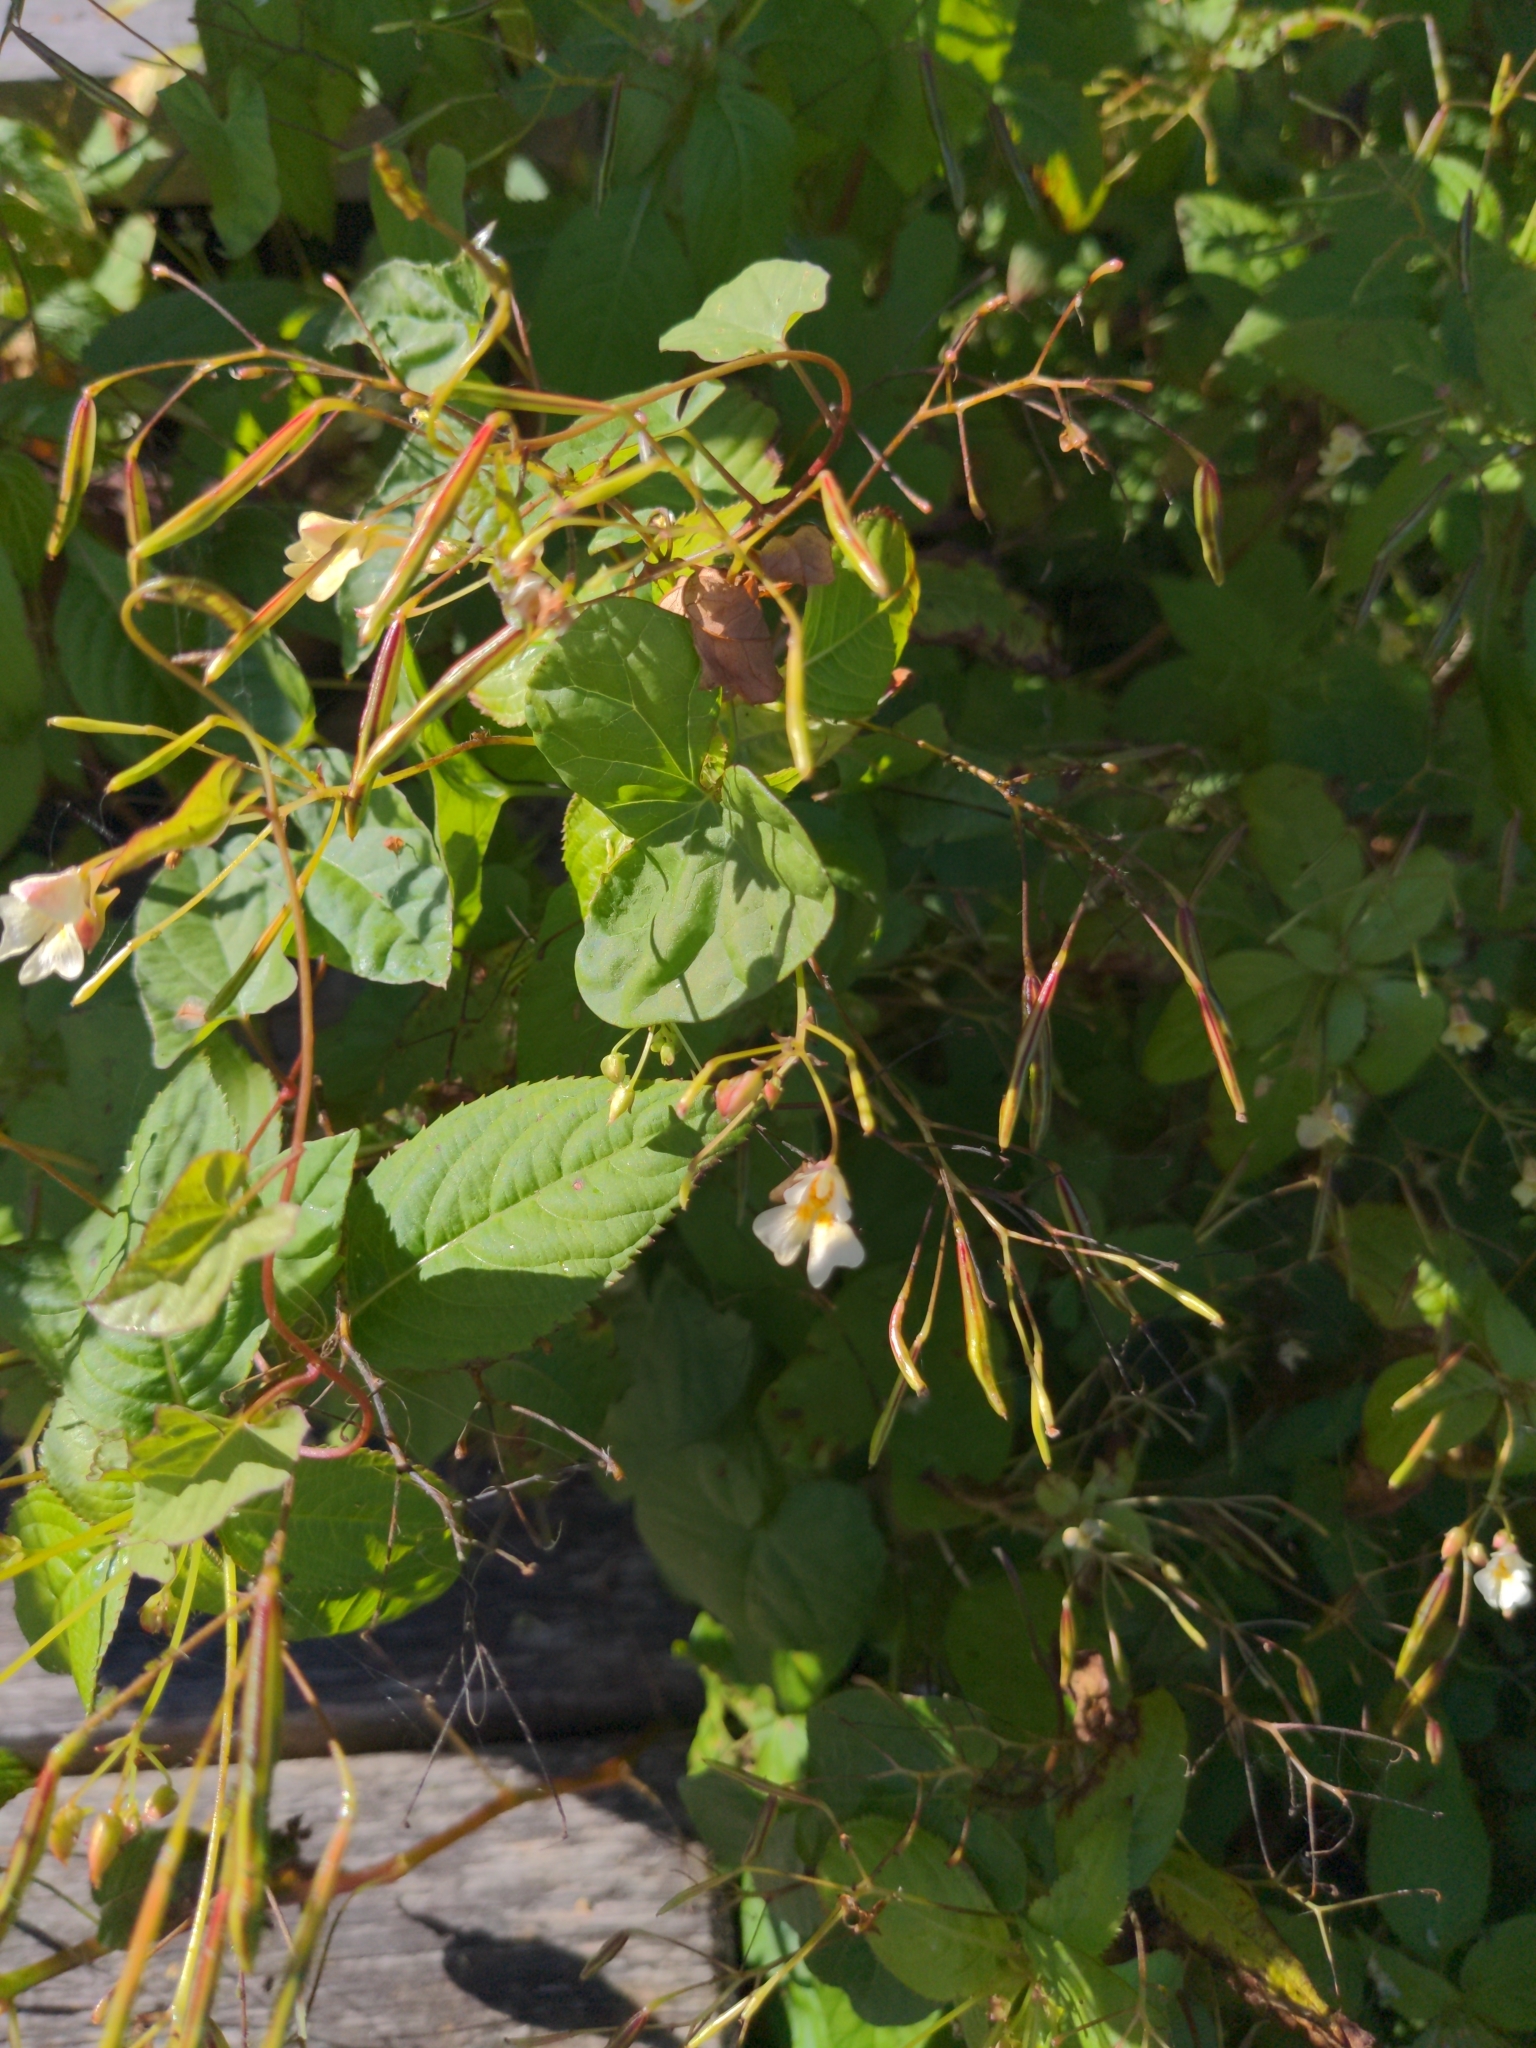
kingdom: Plantae
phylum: Tracheophyta
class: Magnoliopsida
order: Ericales
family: Balsaminaceae
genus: Impatiens
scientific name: Impatiens parviflora
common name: Small balsam
